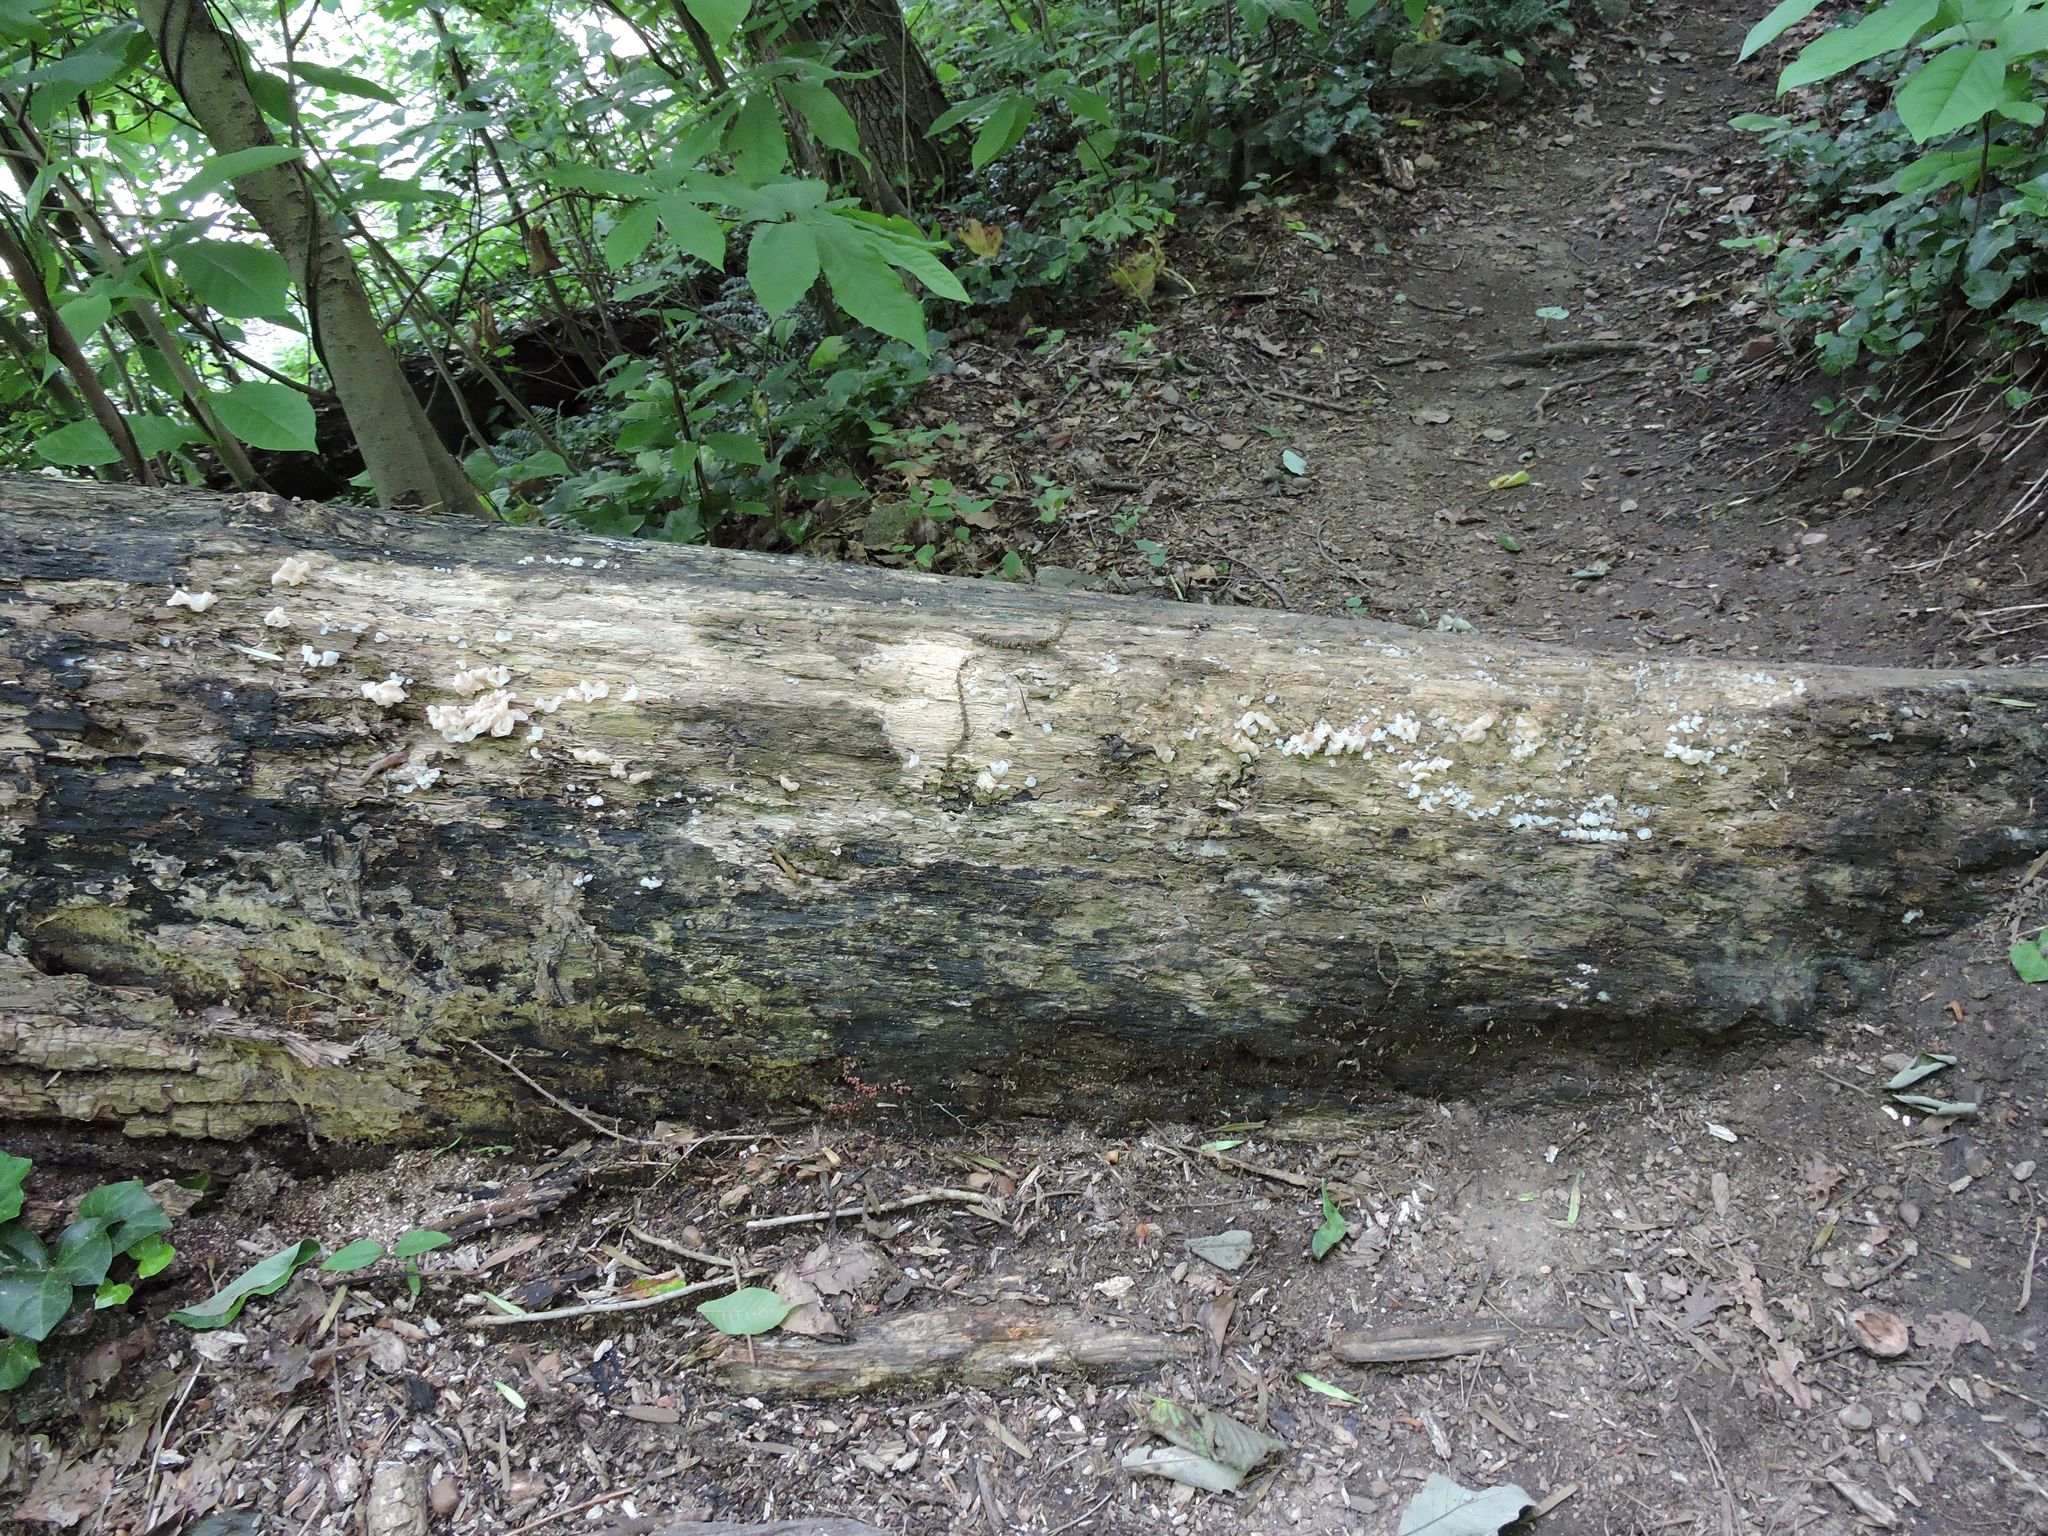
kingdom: Fungi
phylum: Basidiomycota
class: Agaricomycetes
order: Auriculariales
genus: Ductifera
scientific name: Ductifera pululahuana
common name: White jelly fungus
